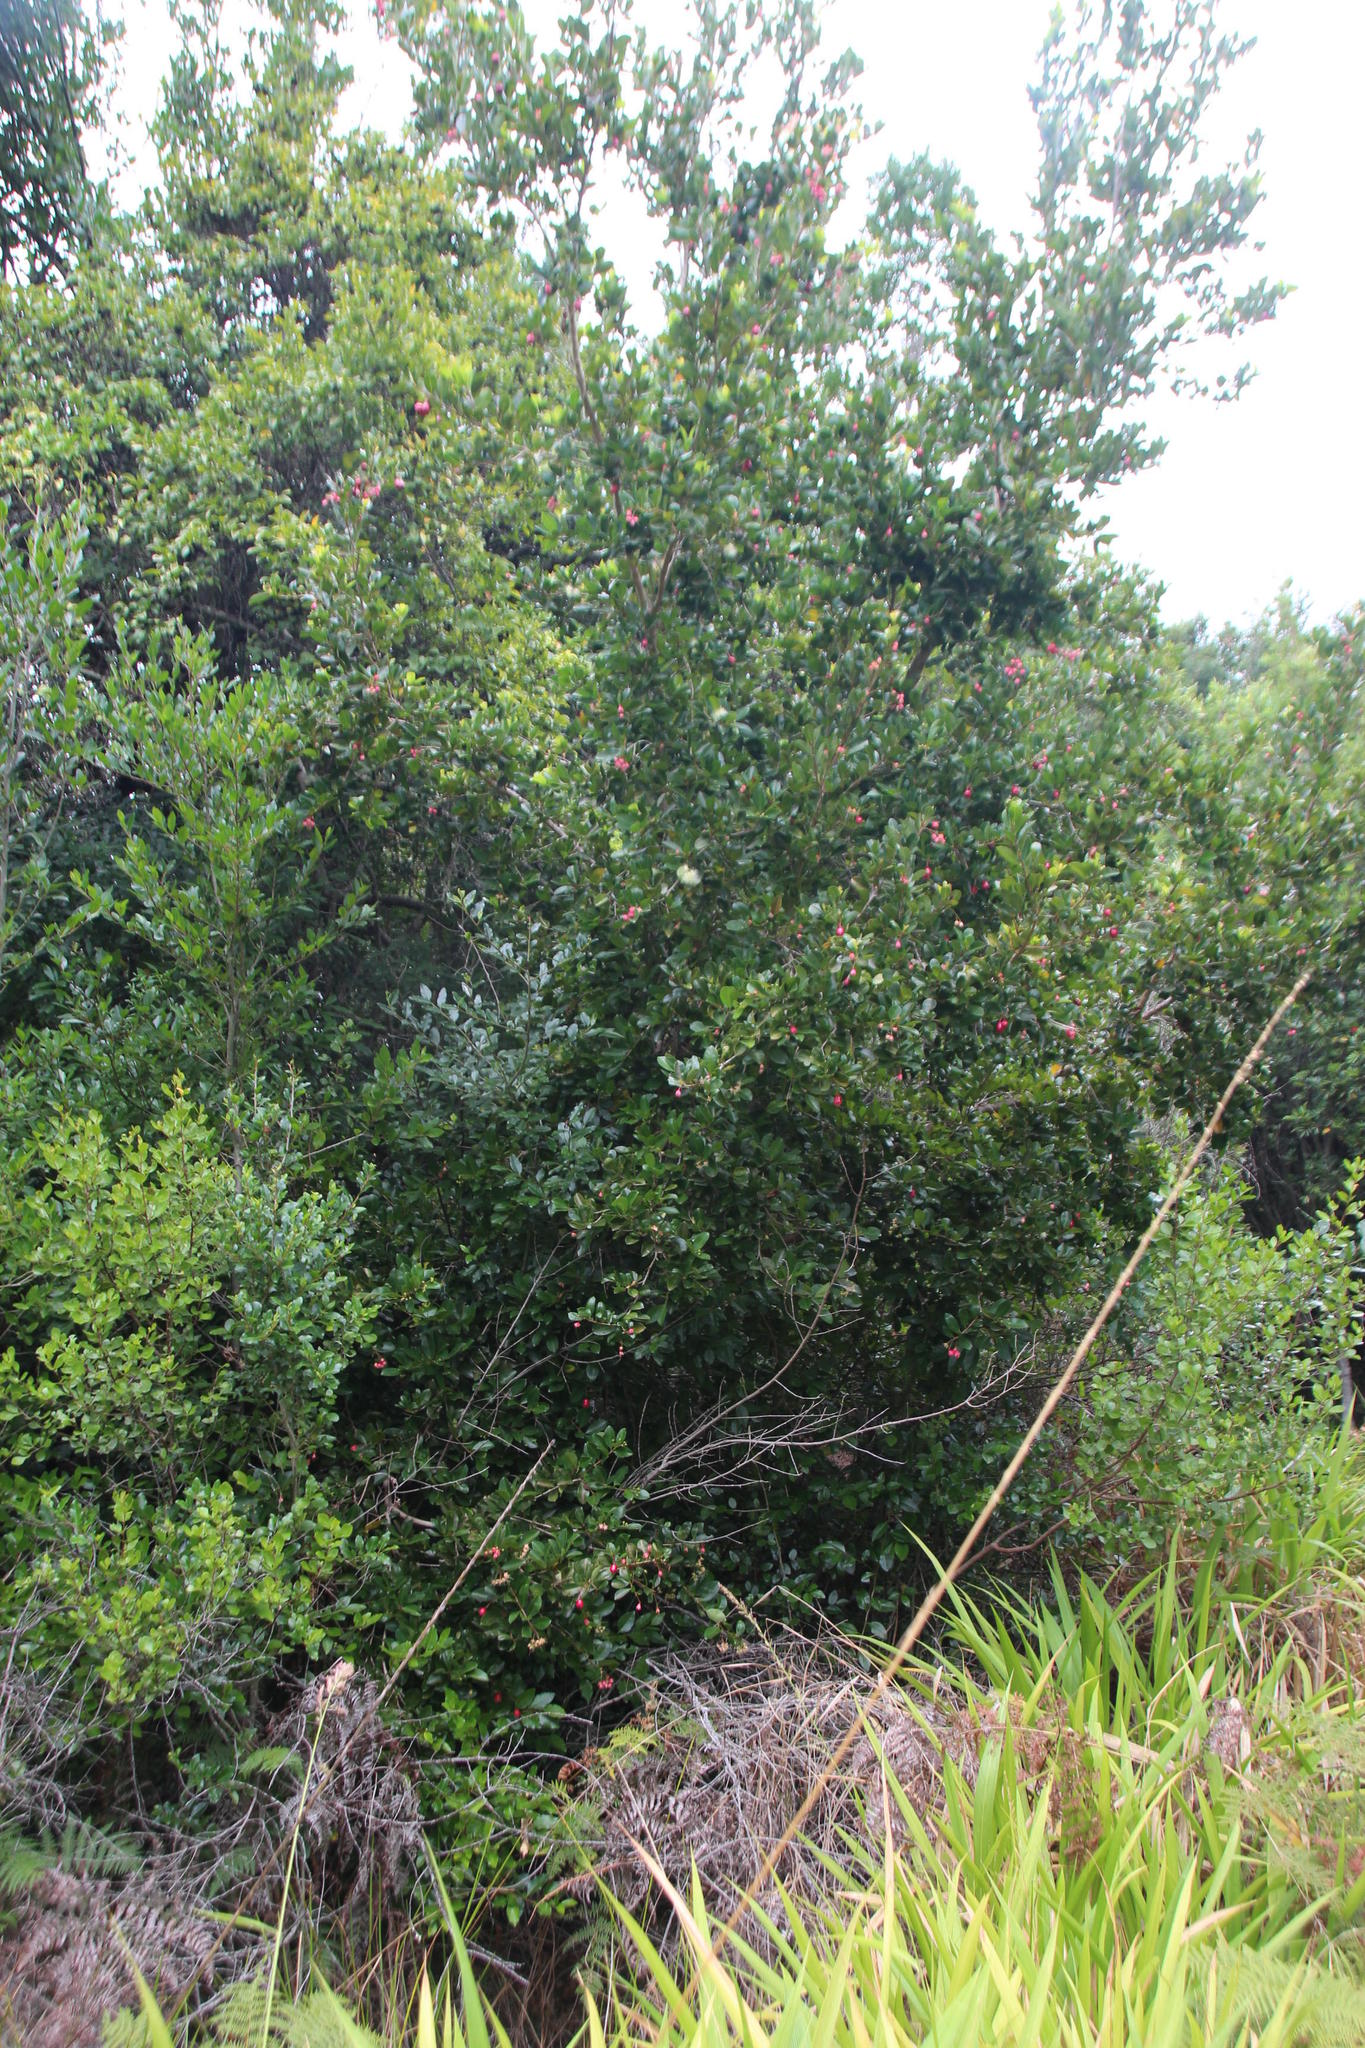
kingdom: Plantae
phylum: Tracheophyta
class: Magnoliopsida
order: Myrtales
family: Myrtaceae
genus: Syzygium
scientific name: Syzygium australe
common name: Australian brush-cherry
